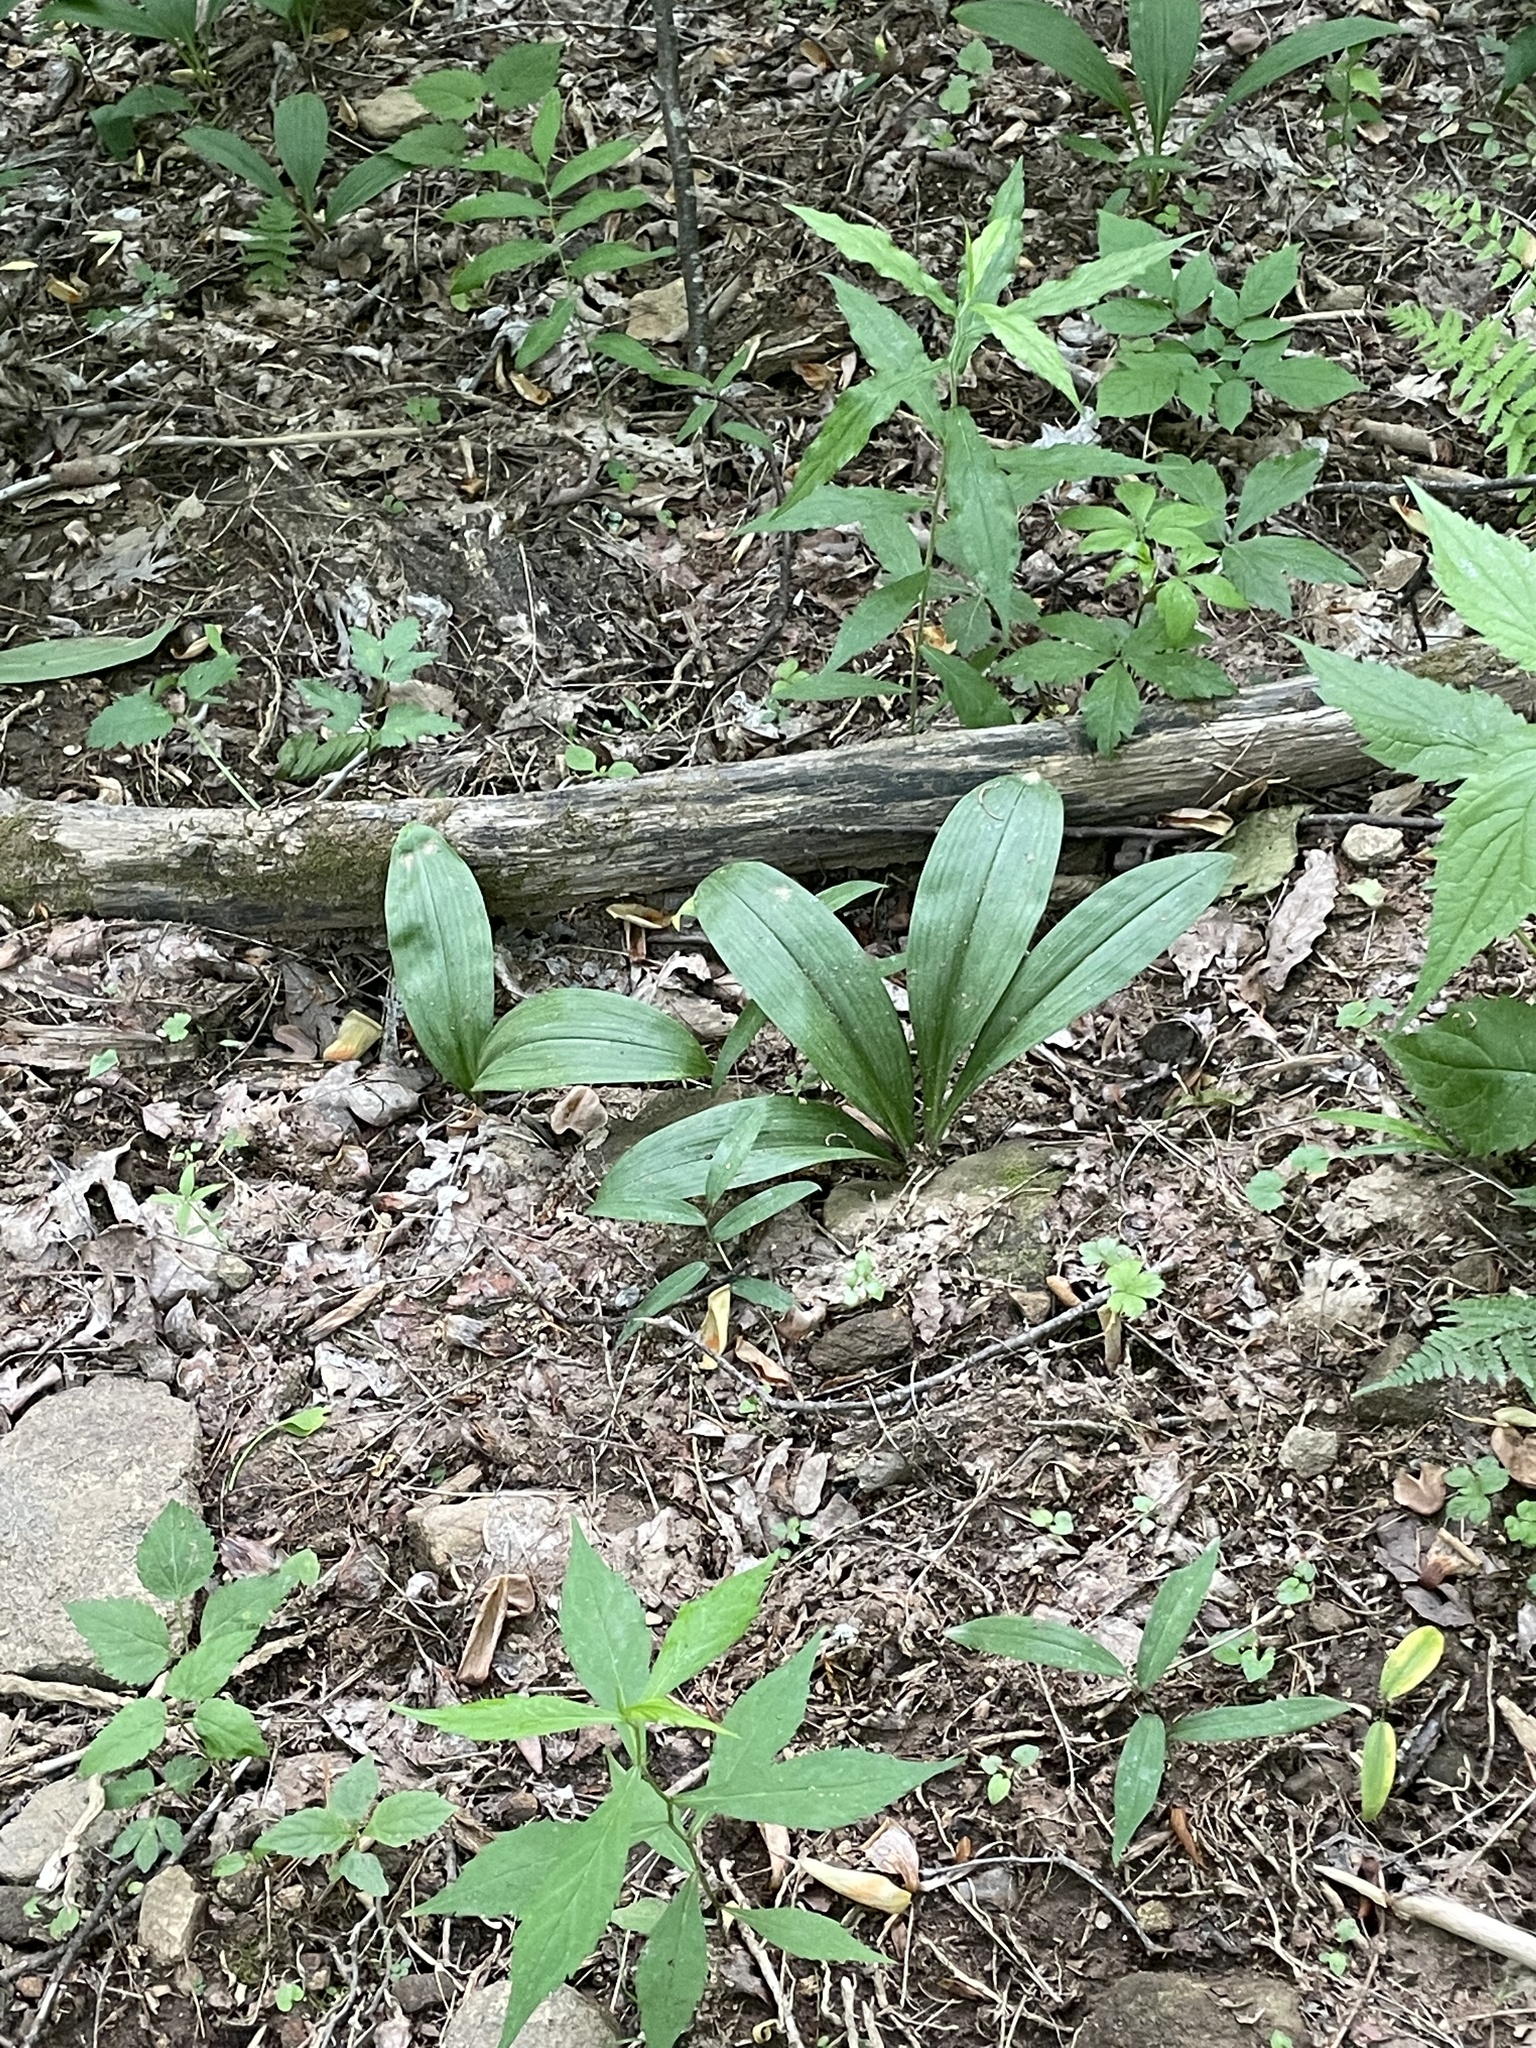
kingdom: Plantae
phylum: Tracheophyta
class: Liliopsida
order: Liliales
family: Liliaceae
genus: Clintonia
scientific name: Clintonia umbellulata
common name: Speckle wood-lily
